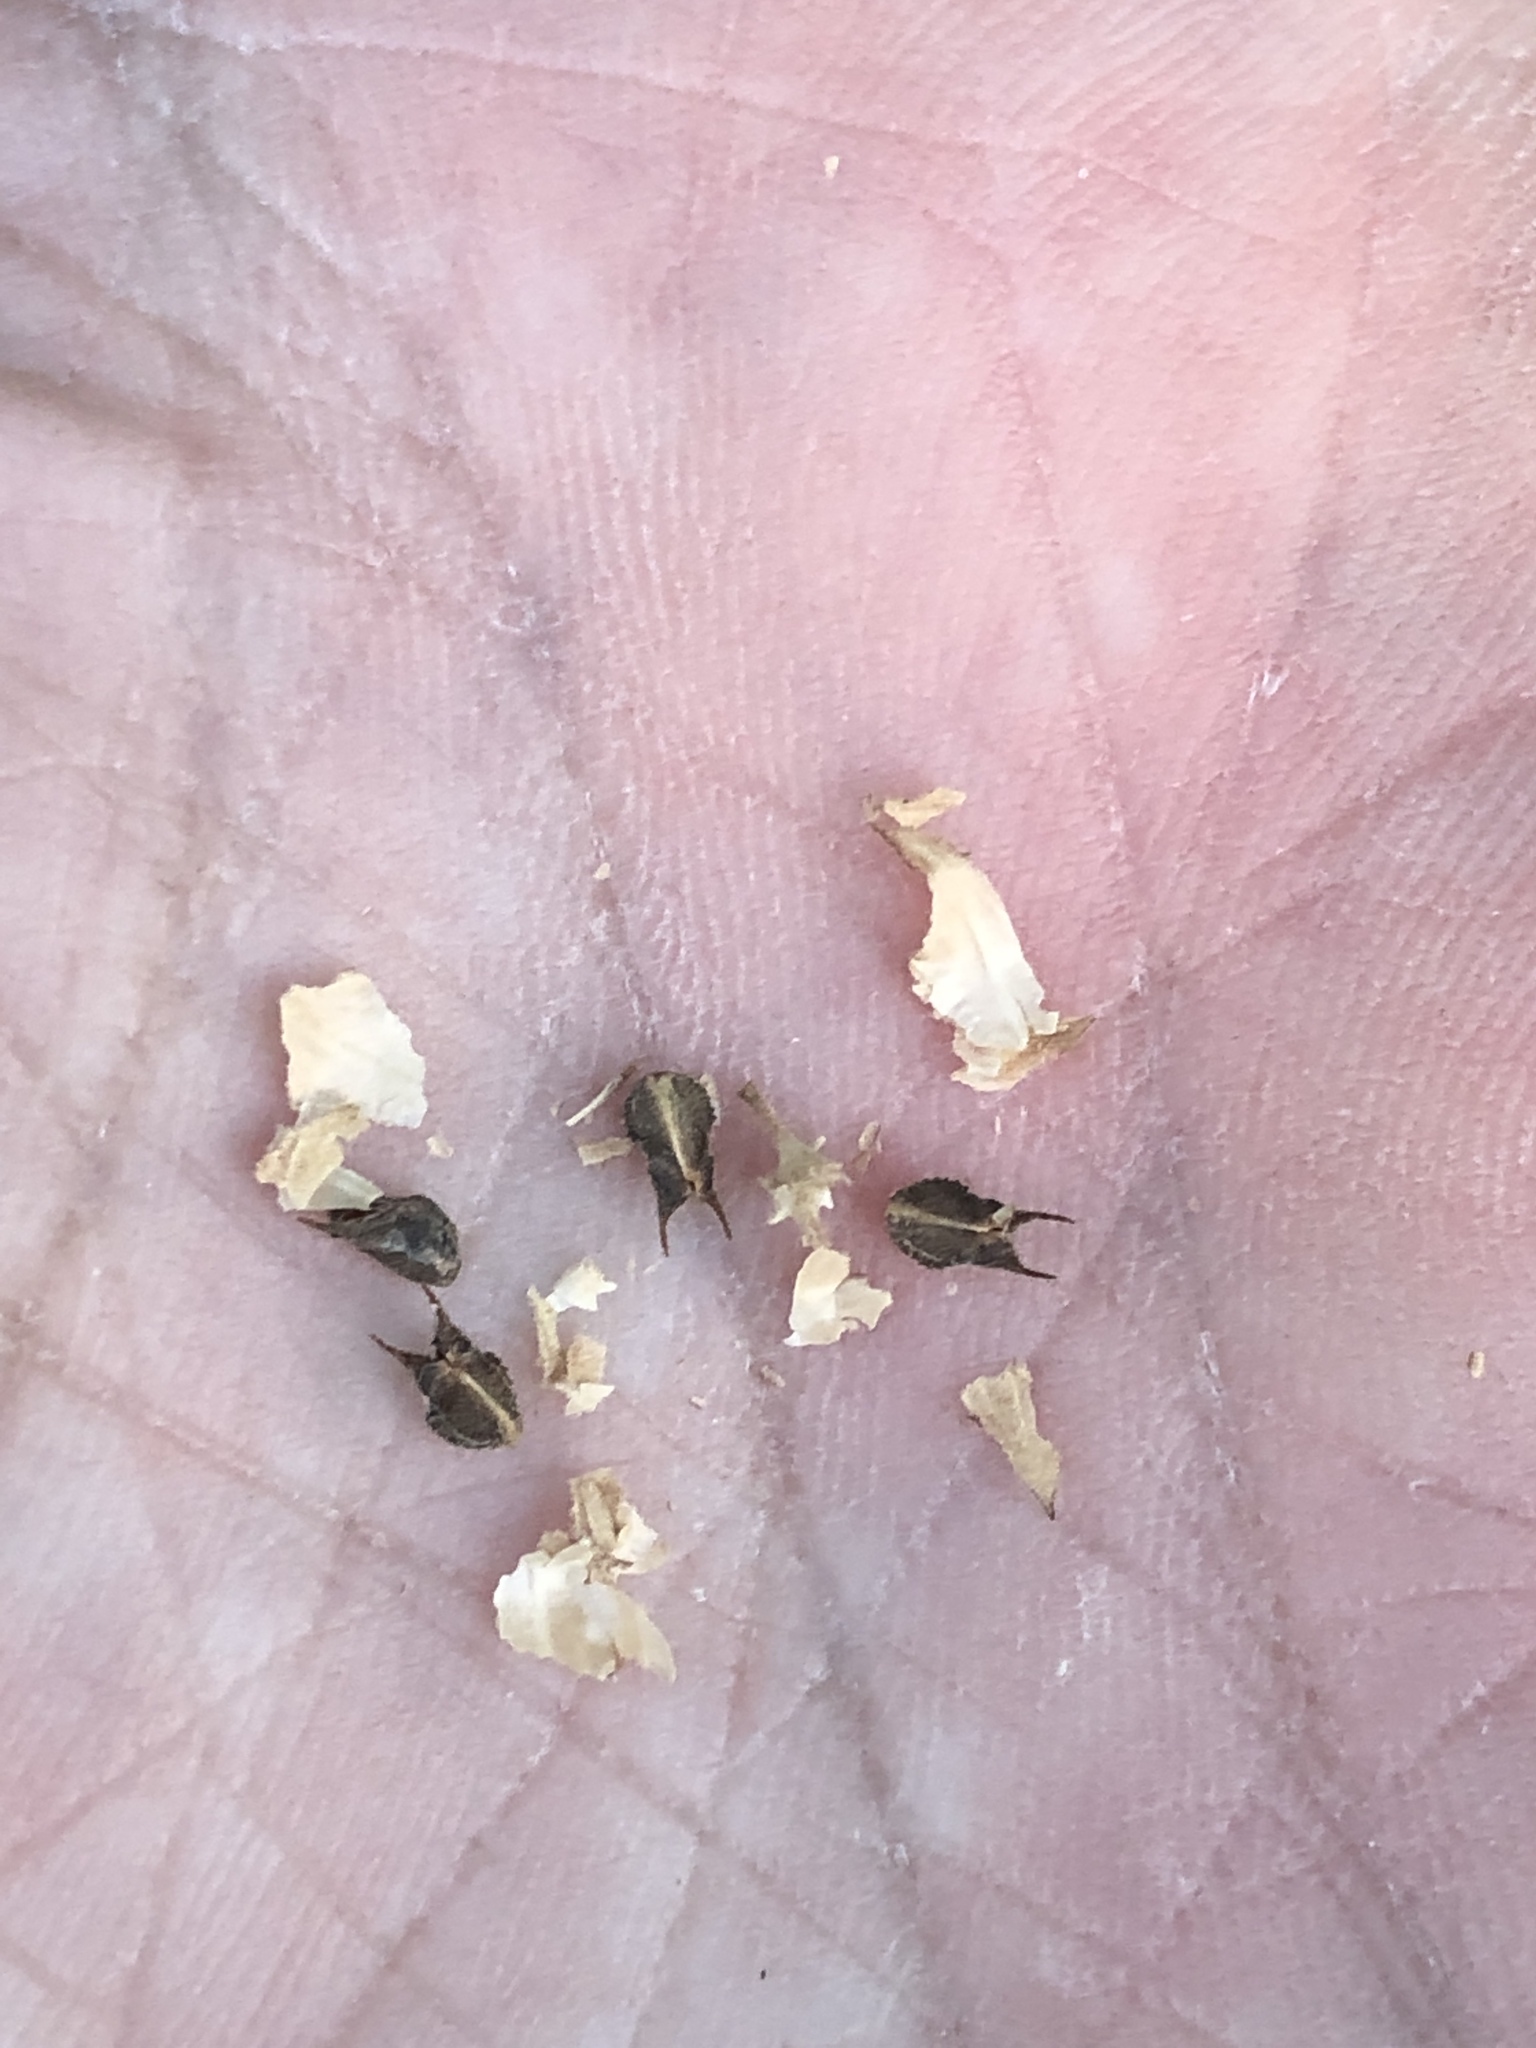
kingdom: Plantae
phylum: Tracheophyta
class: Magnoliopsida
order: Malvales
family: Malvaceae
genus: Sida
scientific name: Sida spinosa
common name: Prickly fanpetals
